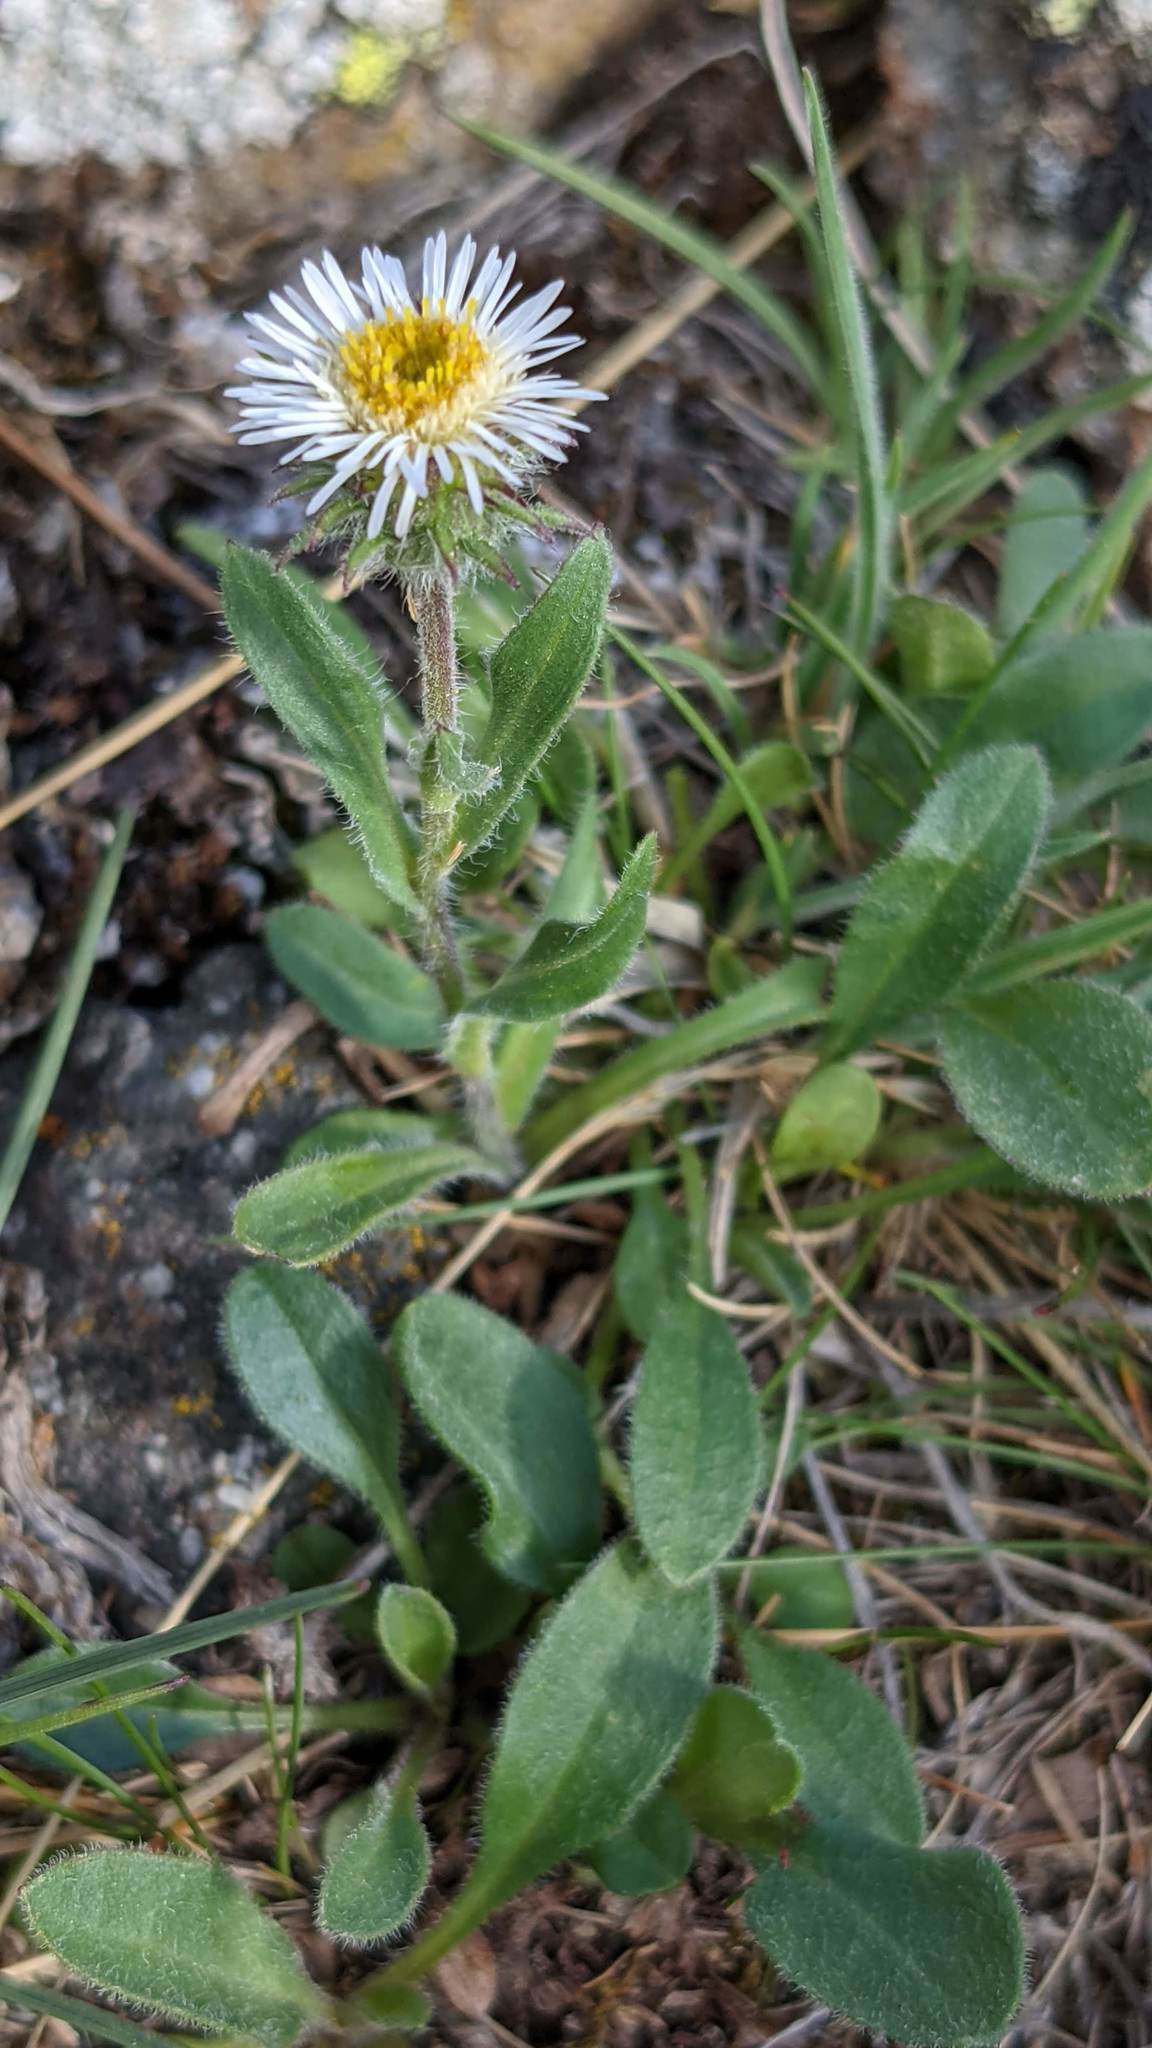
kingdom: Plantae
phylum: Tracheophyta
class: Magnoliopsida
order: Asterales
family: Asteraceae
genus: Erigeron
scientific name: Erigeron nivalis
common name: Snow fleabane
